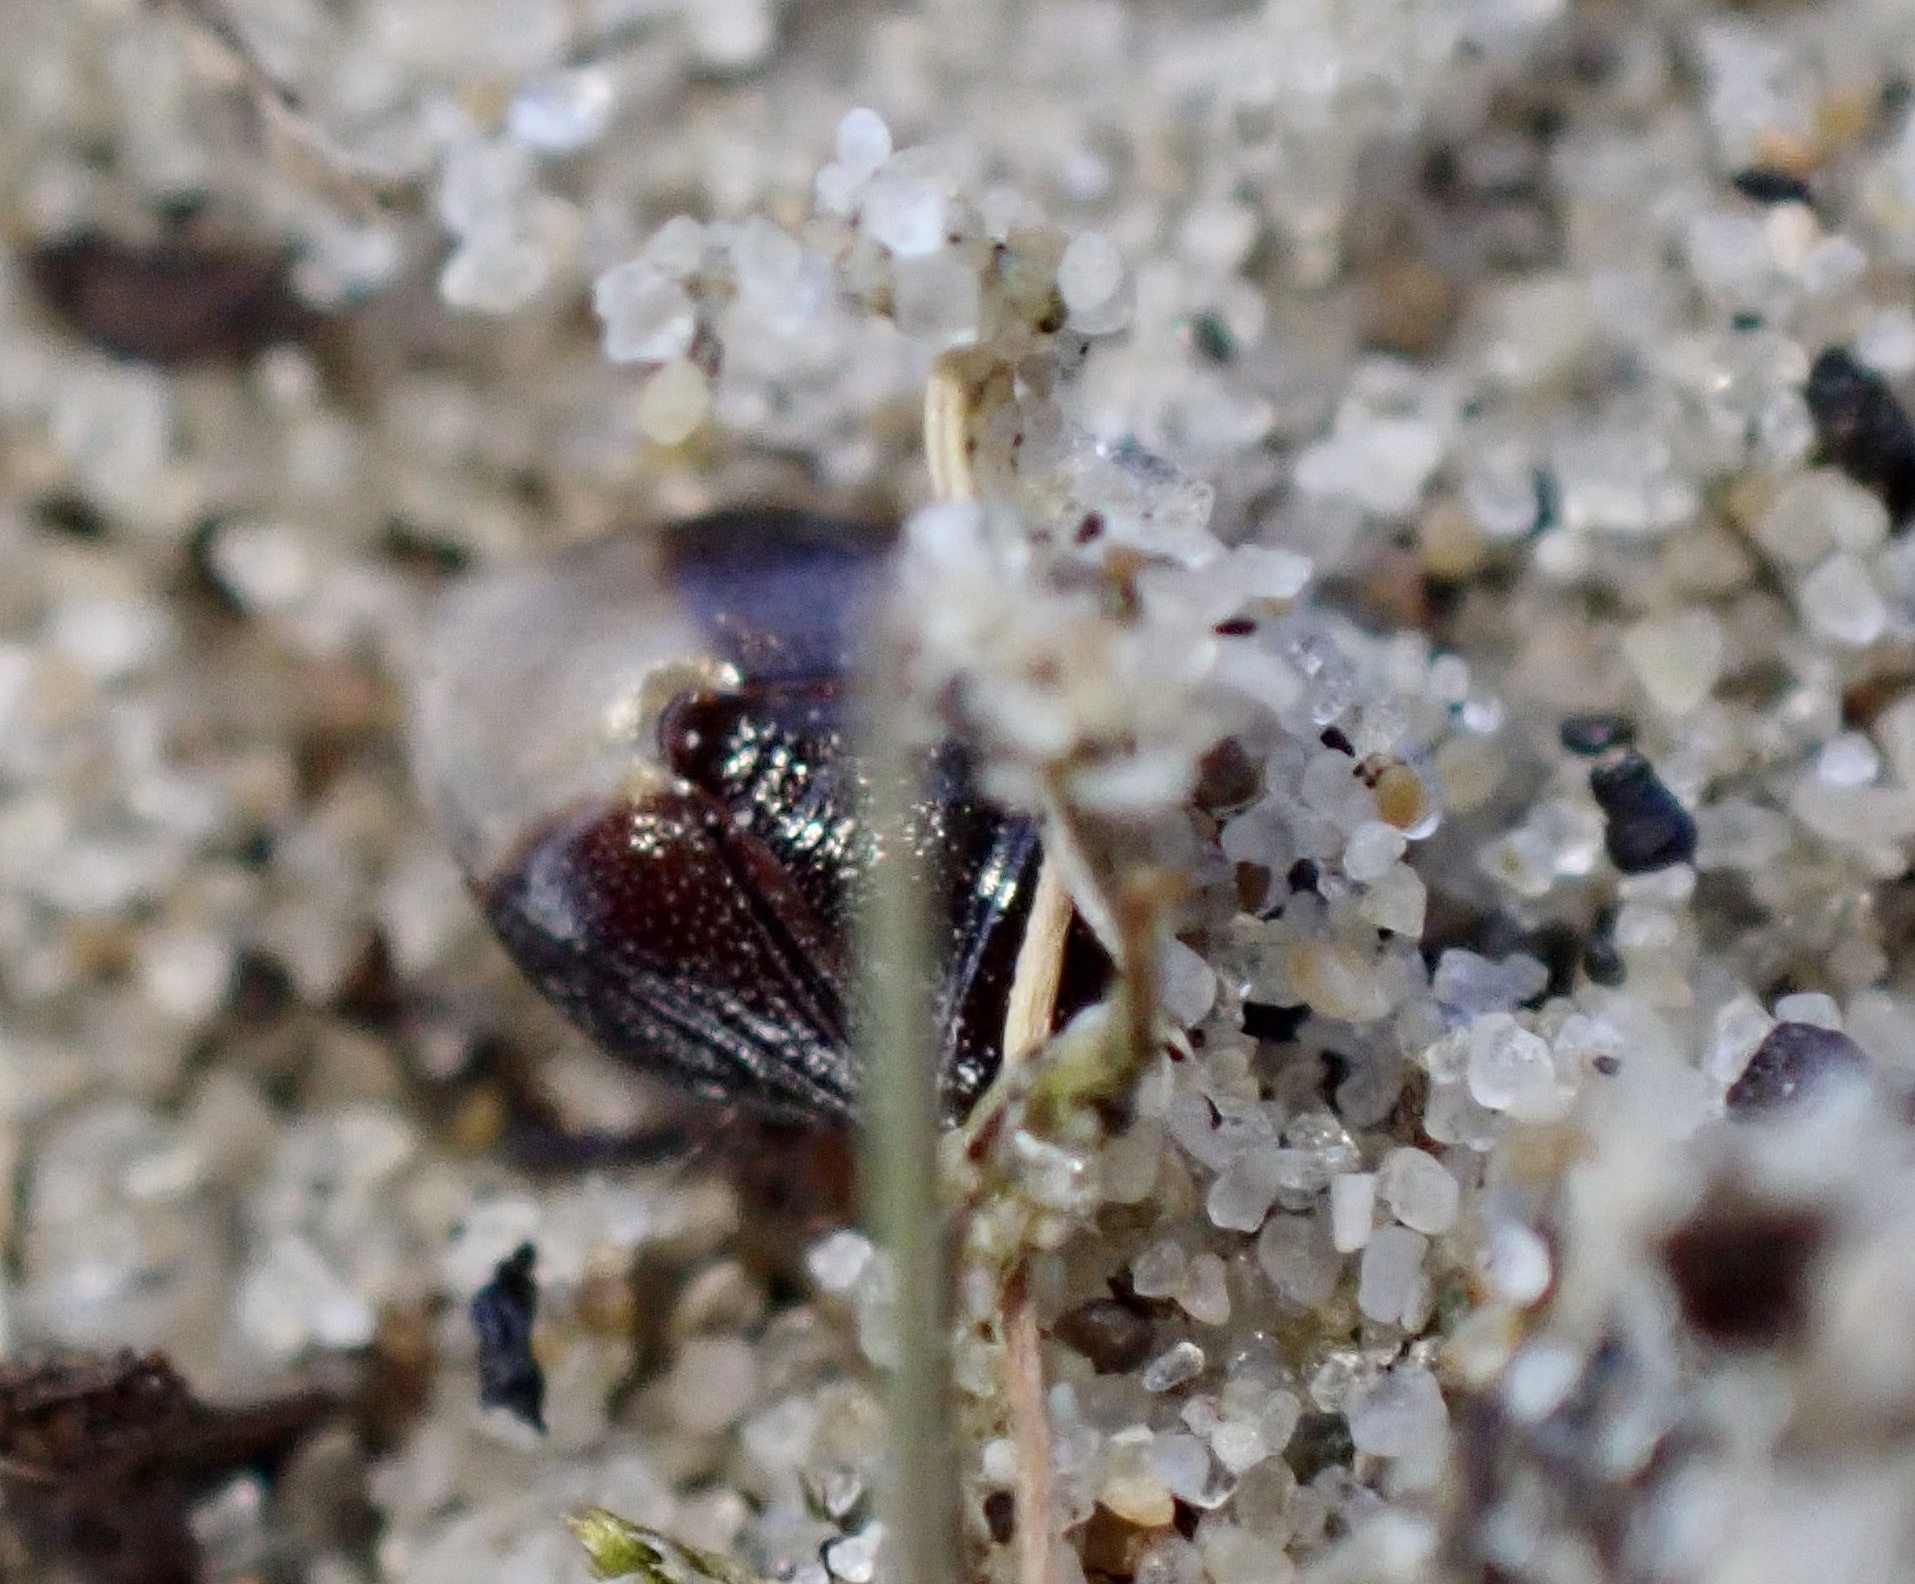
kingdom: Animalia
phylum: Arthropoda
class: Insecta
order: Hemiptera
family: Cydnidae
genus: Byrsinus
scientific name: Byrsinus flavicornis
